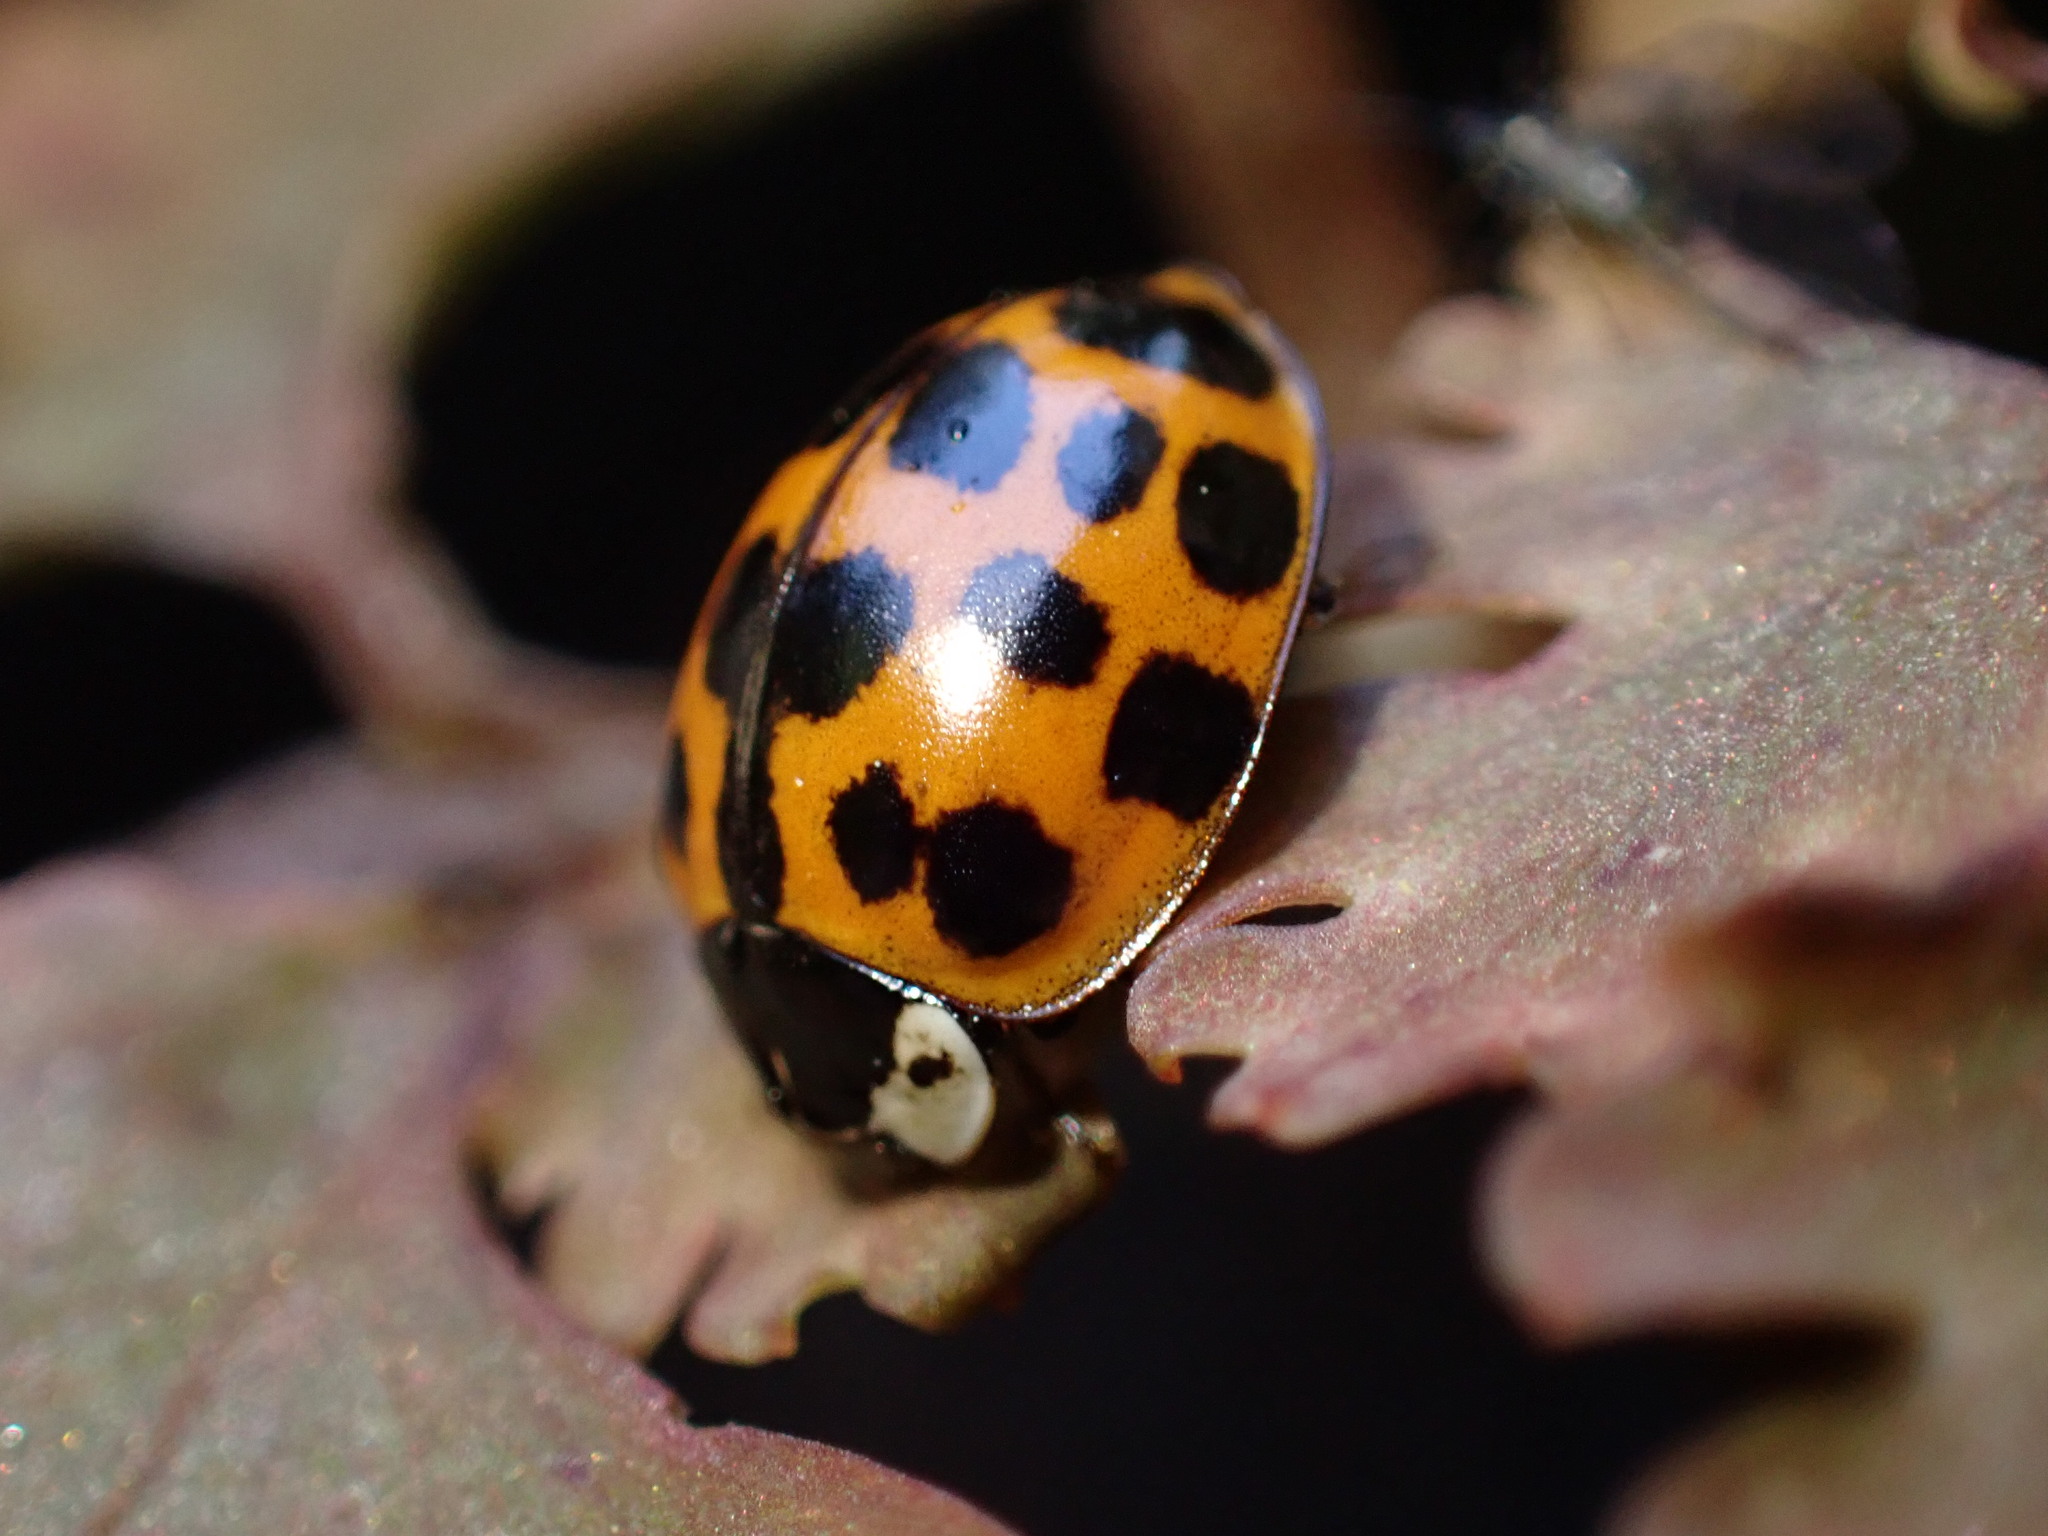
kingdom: Animalia
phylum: Arthropoda
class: Insecta
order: Coleoptera
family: Coccinellidae
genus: Harmonia
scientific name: Harmonia axyridis
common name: Harlequin ladybird
